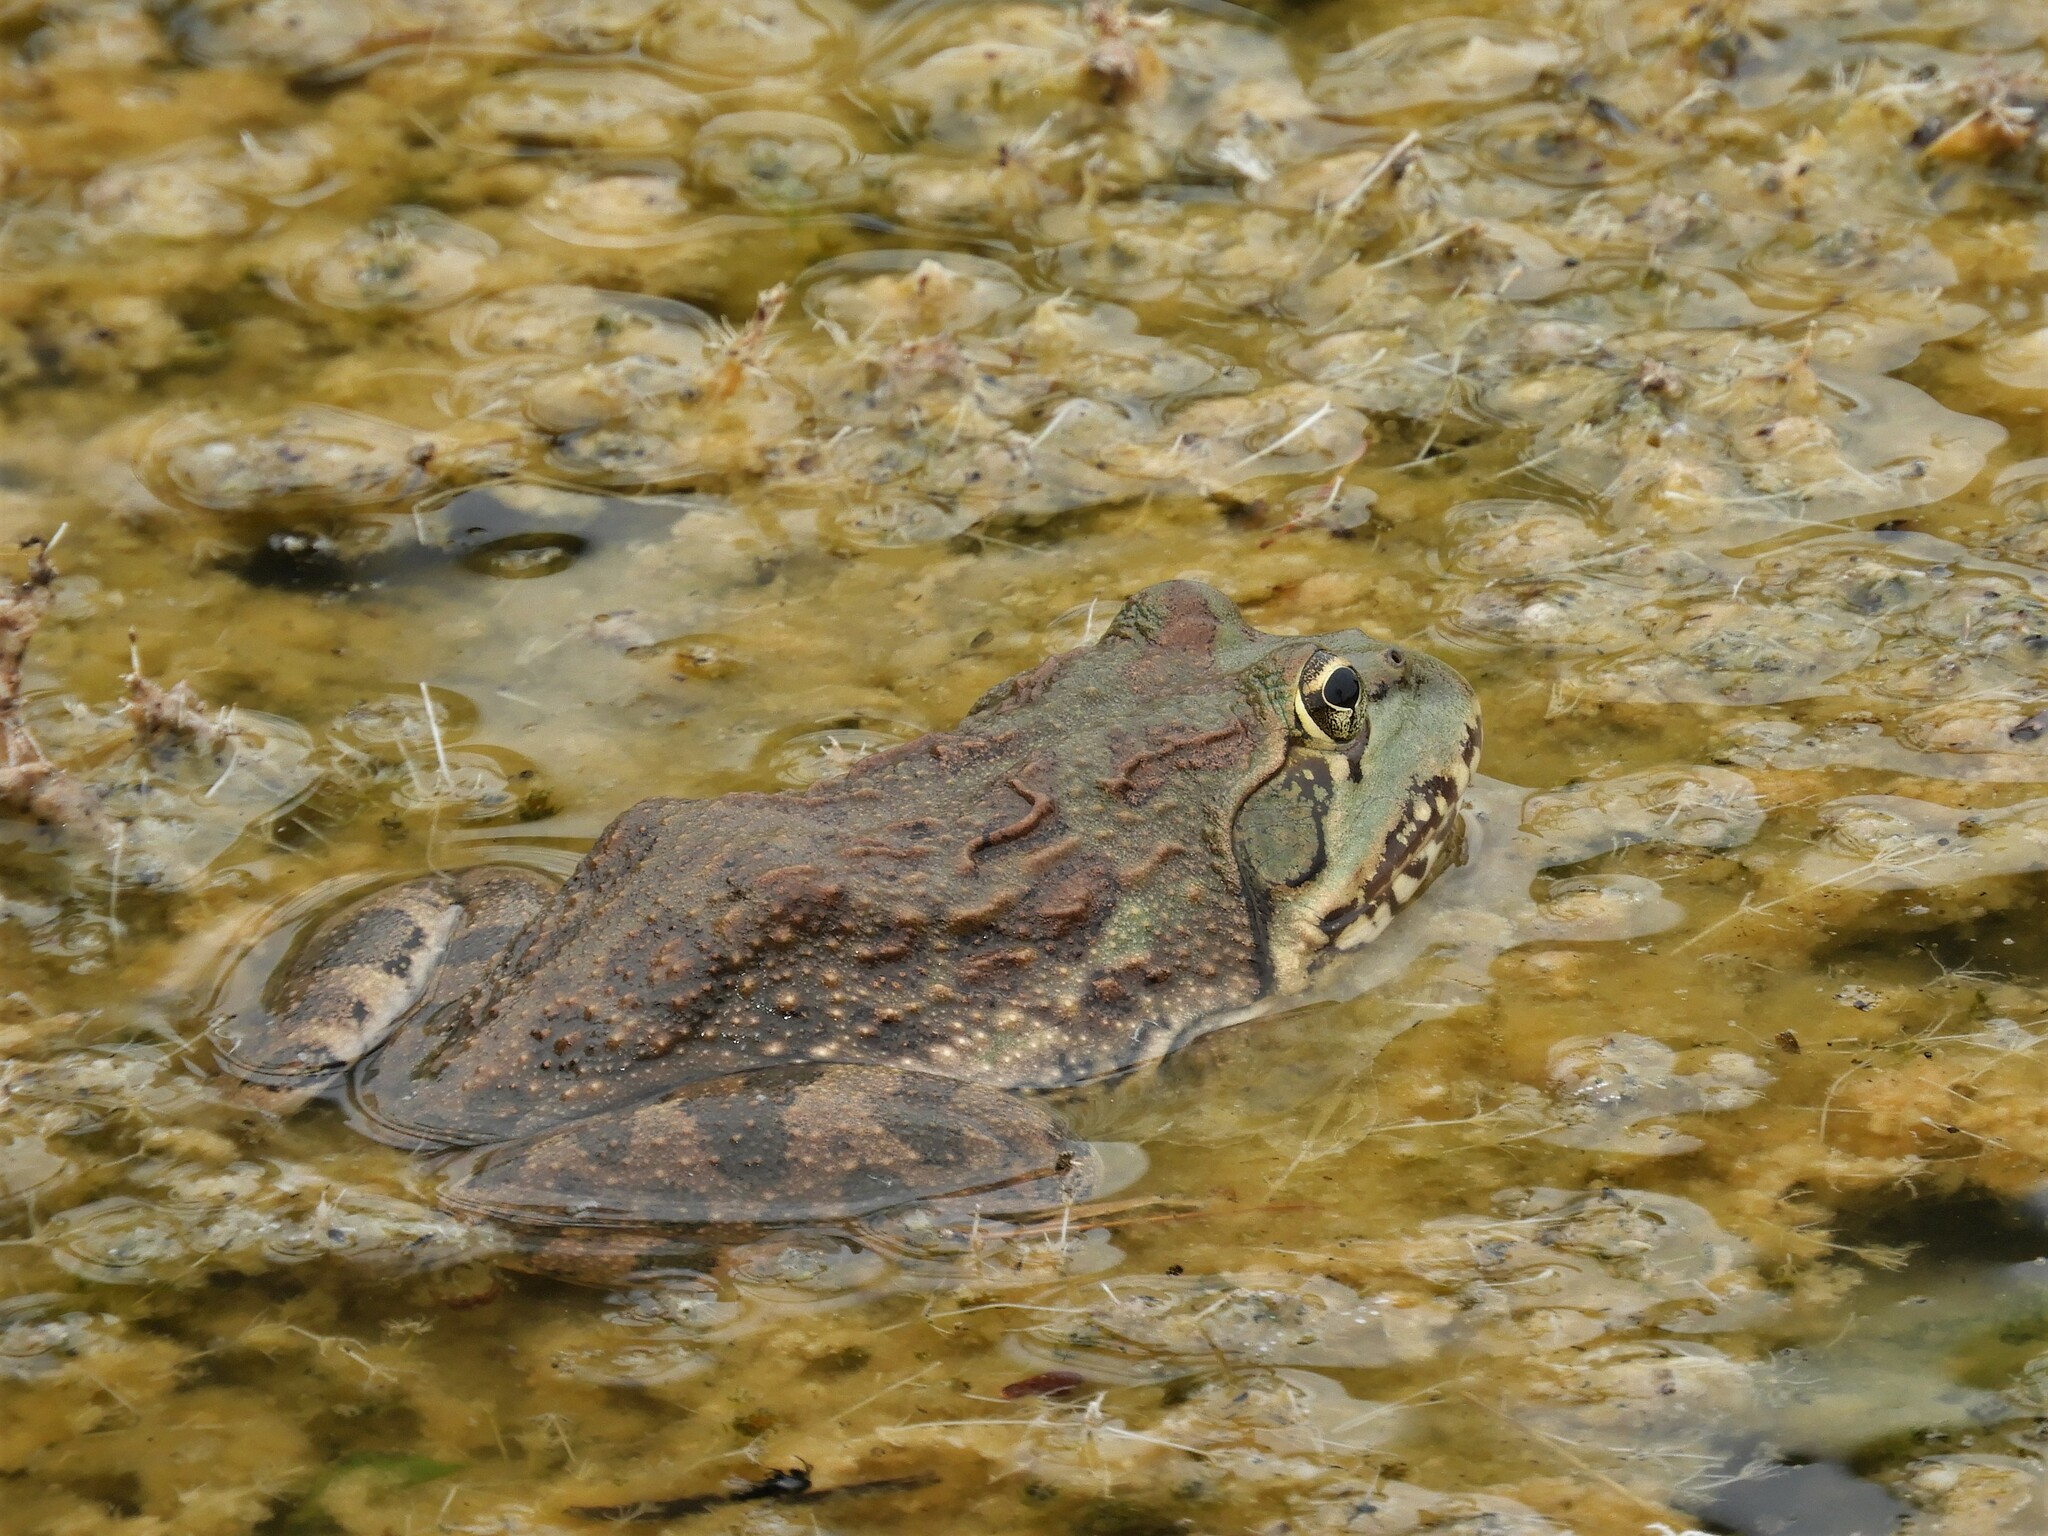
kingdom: Animalia
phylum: Chordata
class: Amphibia
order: Anura
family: Pyxicephalidae
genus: Amietia
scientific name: Amietia poyntoni
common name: Poynton's river frog
